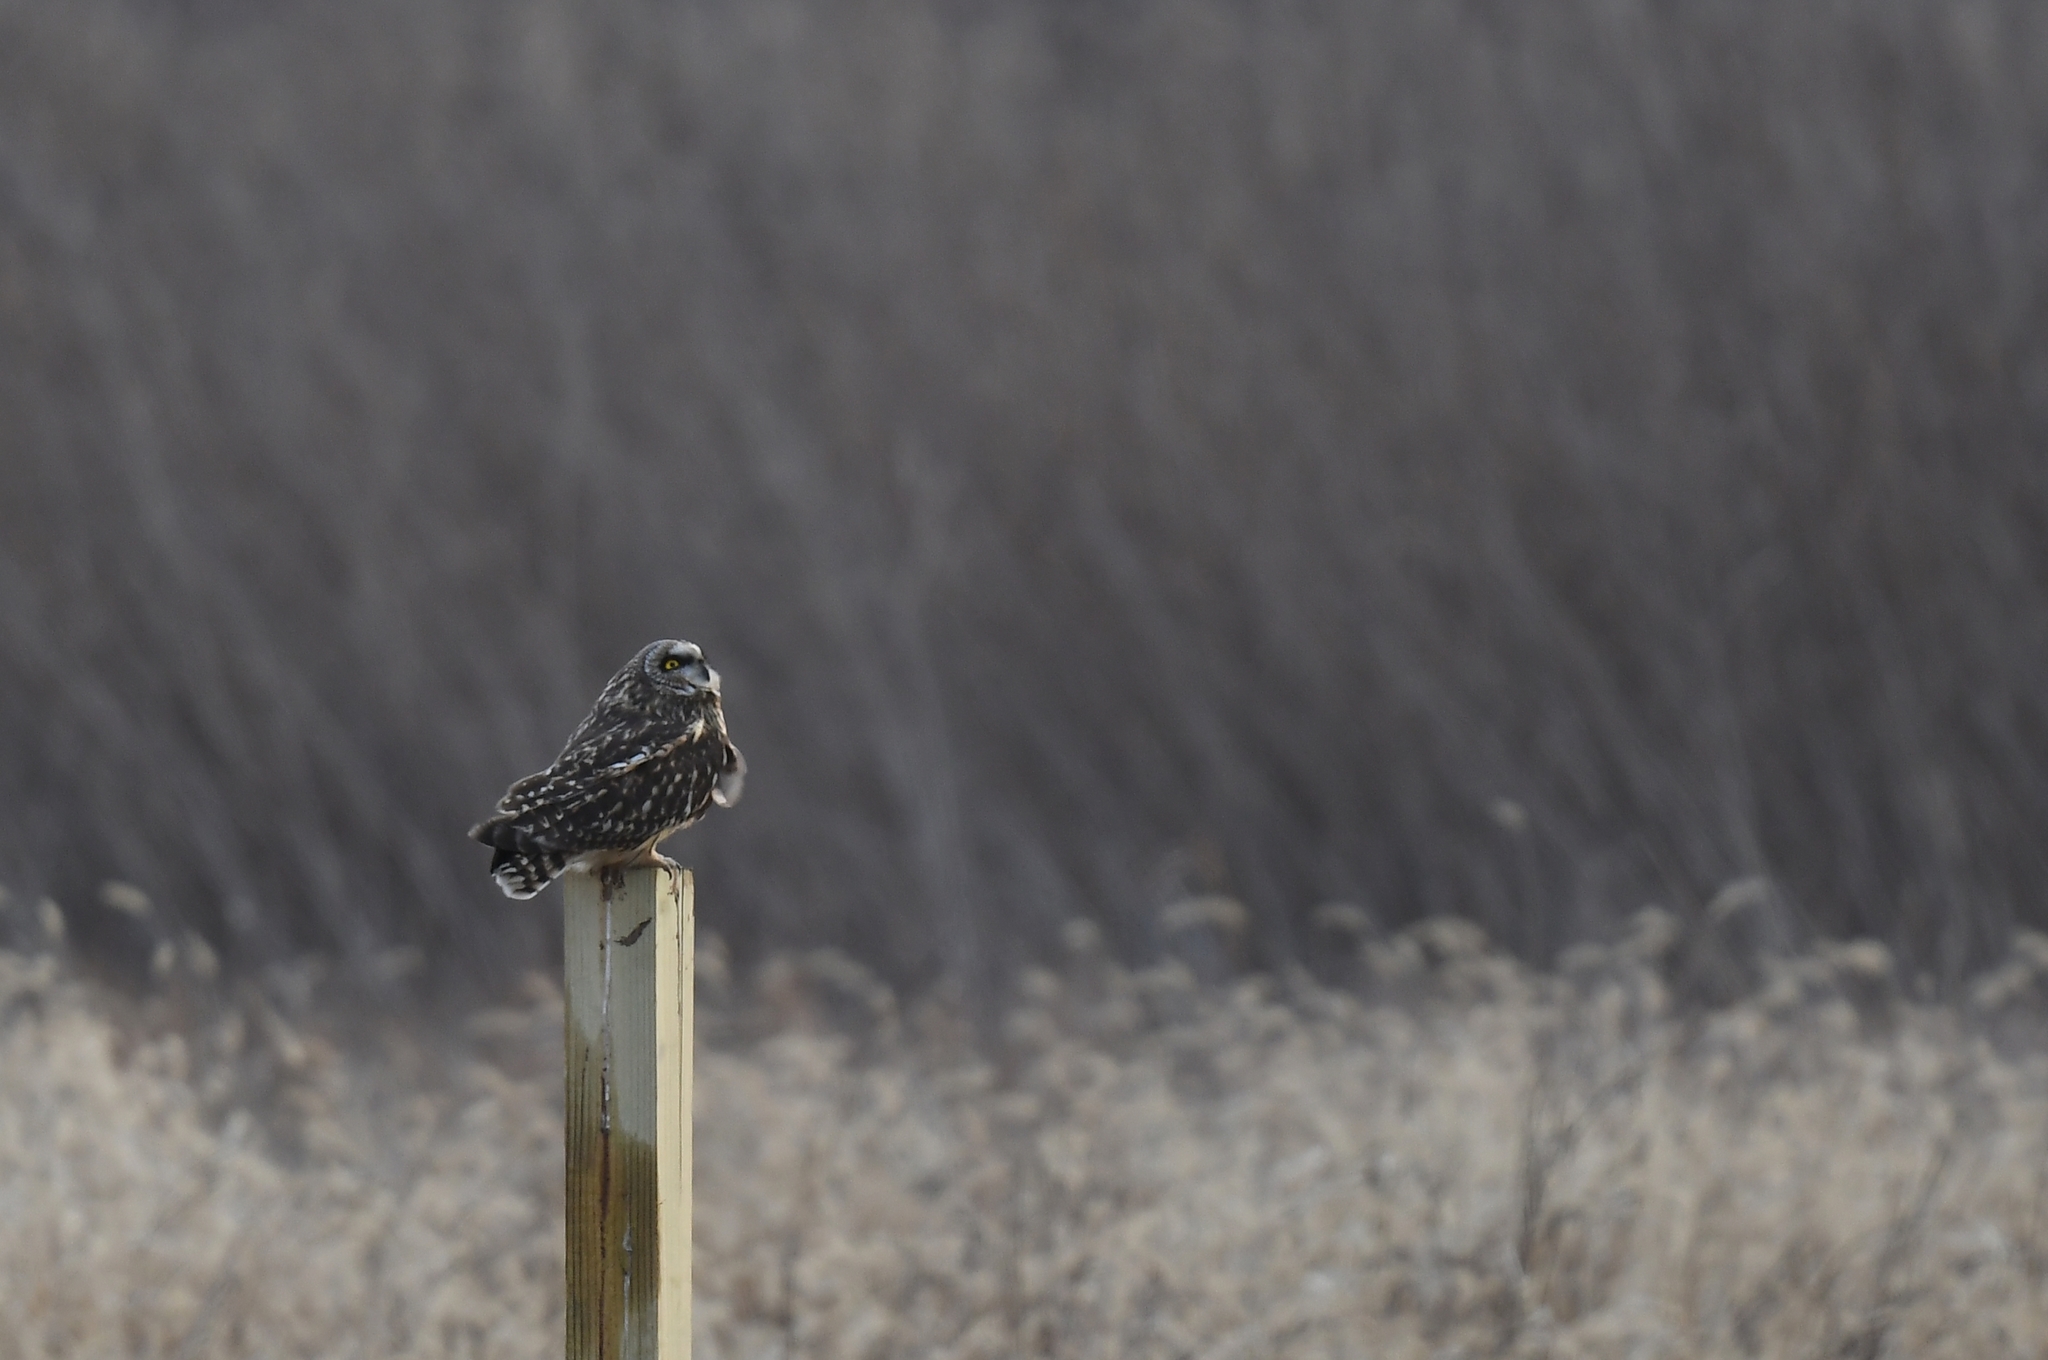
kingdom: Animalia
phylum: Chordata
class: Aves
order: Strigiformes
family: Strigidae
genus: Asio
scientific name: Asio flammeus
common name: Short-eared owl
